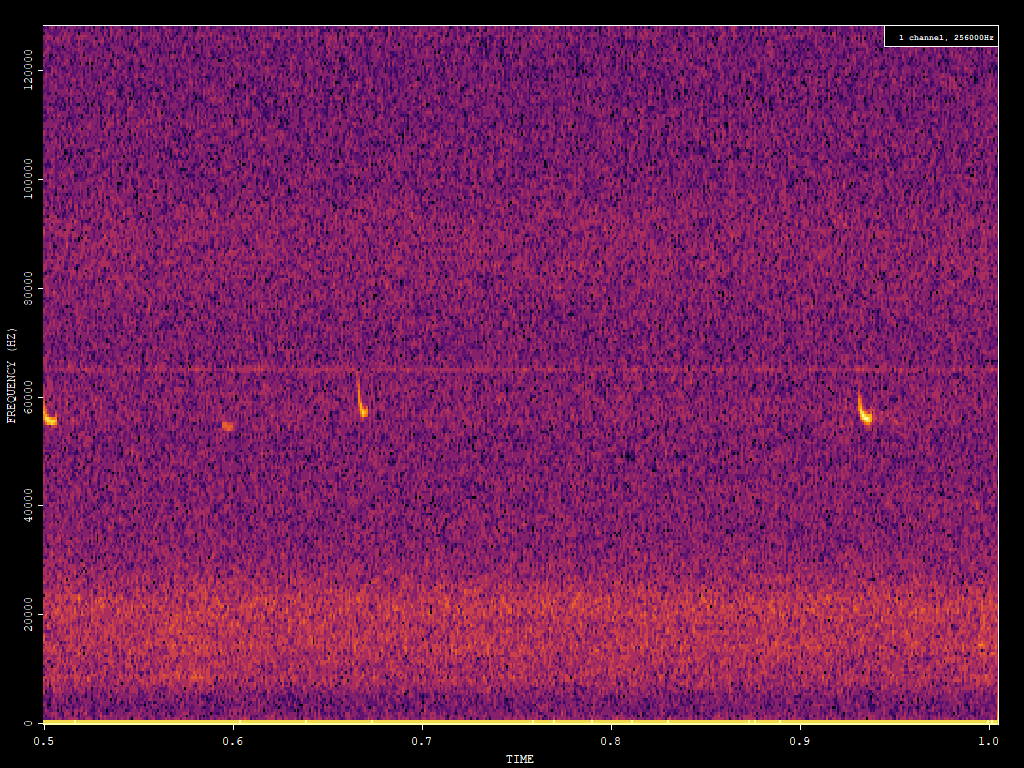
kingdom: Animalia
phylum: Chordata
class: Mammalia
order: Chiroptera
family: Vespertilionidae
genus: Pipistrellus
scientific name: Pipistrellus pygmaeus
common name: Soprano pipistrelle
